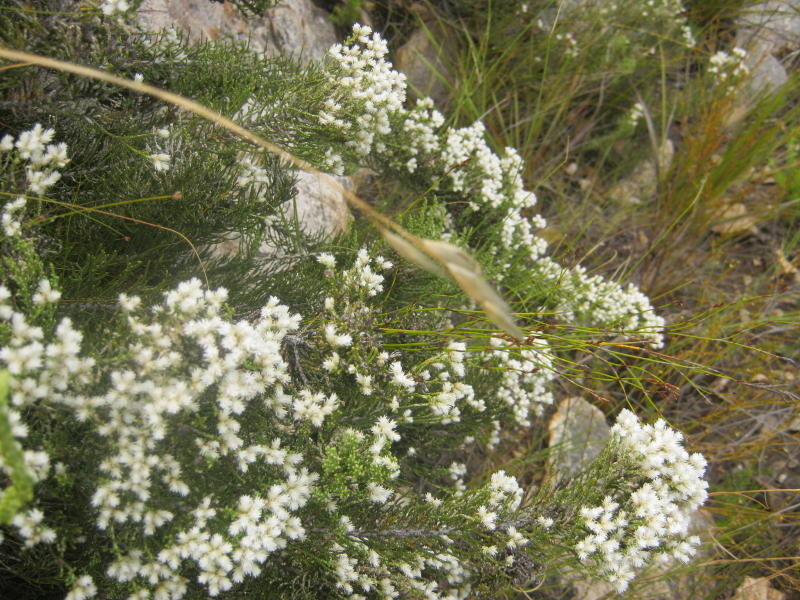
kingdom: Plantae
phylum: Tracheophyta
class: Magnoliopsida
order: Asterales
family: Asteraceae
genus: Dolichothrix
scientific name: Dolichothrix ericoides
